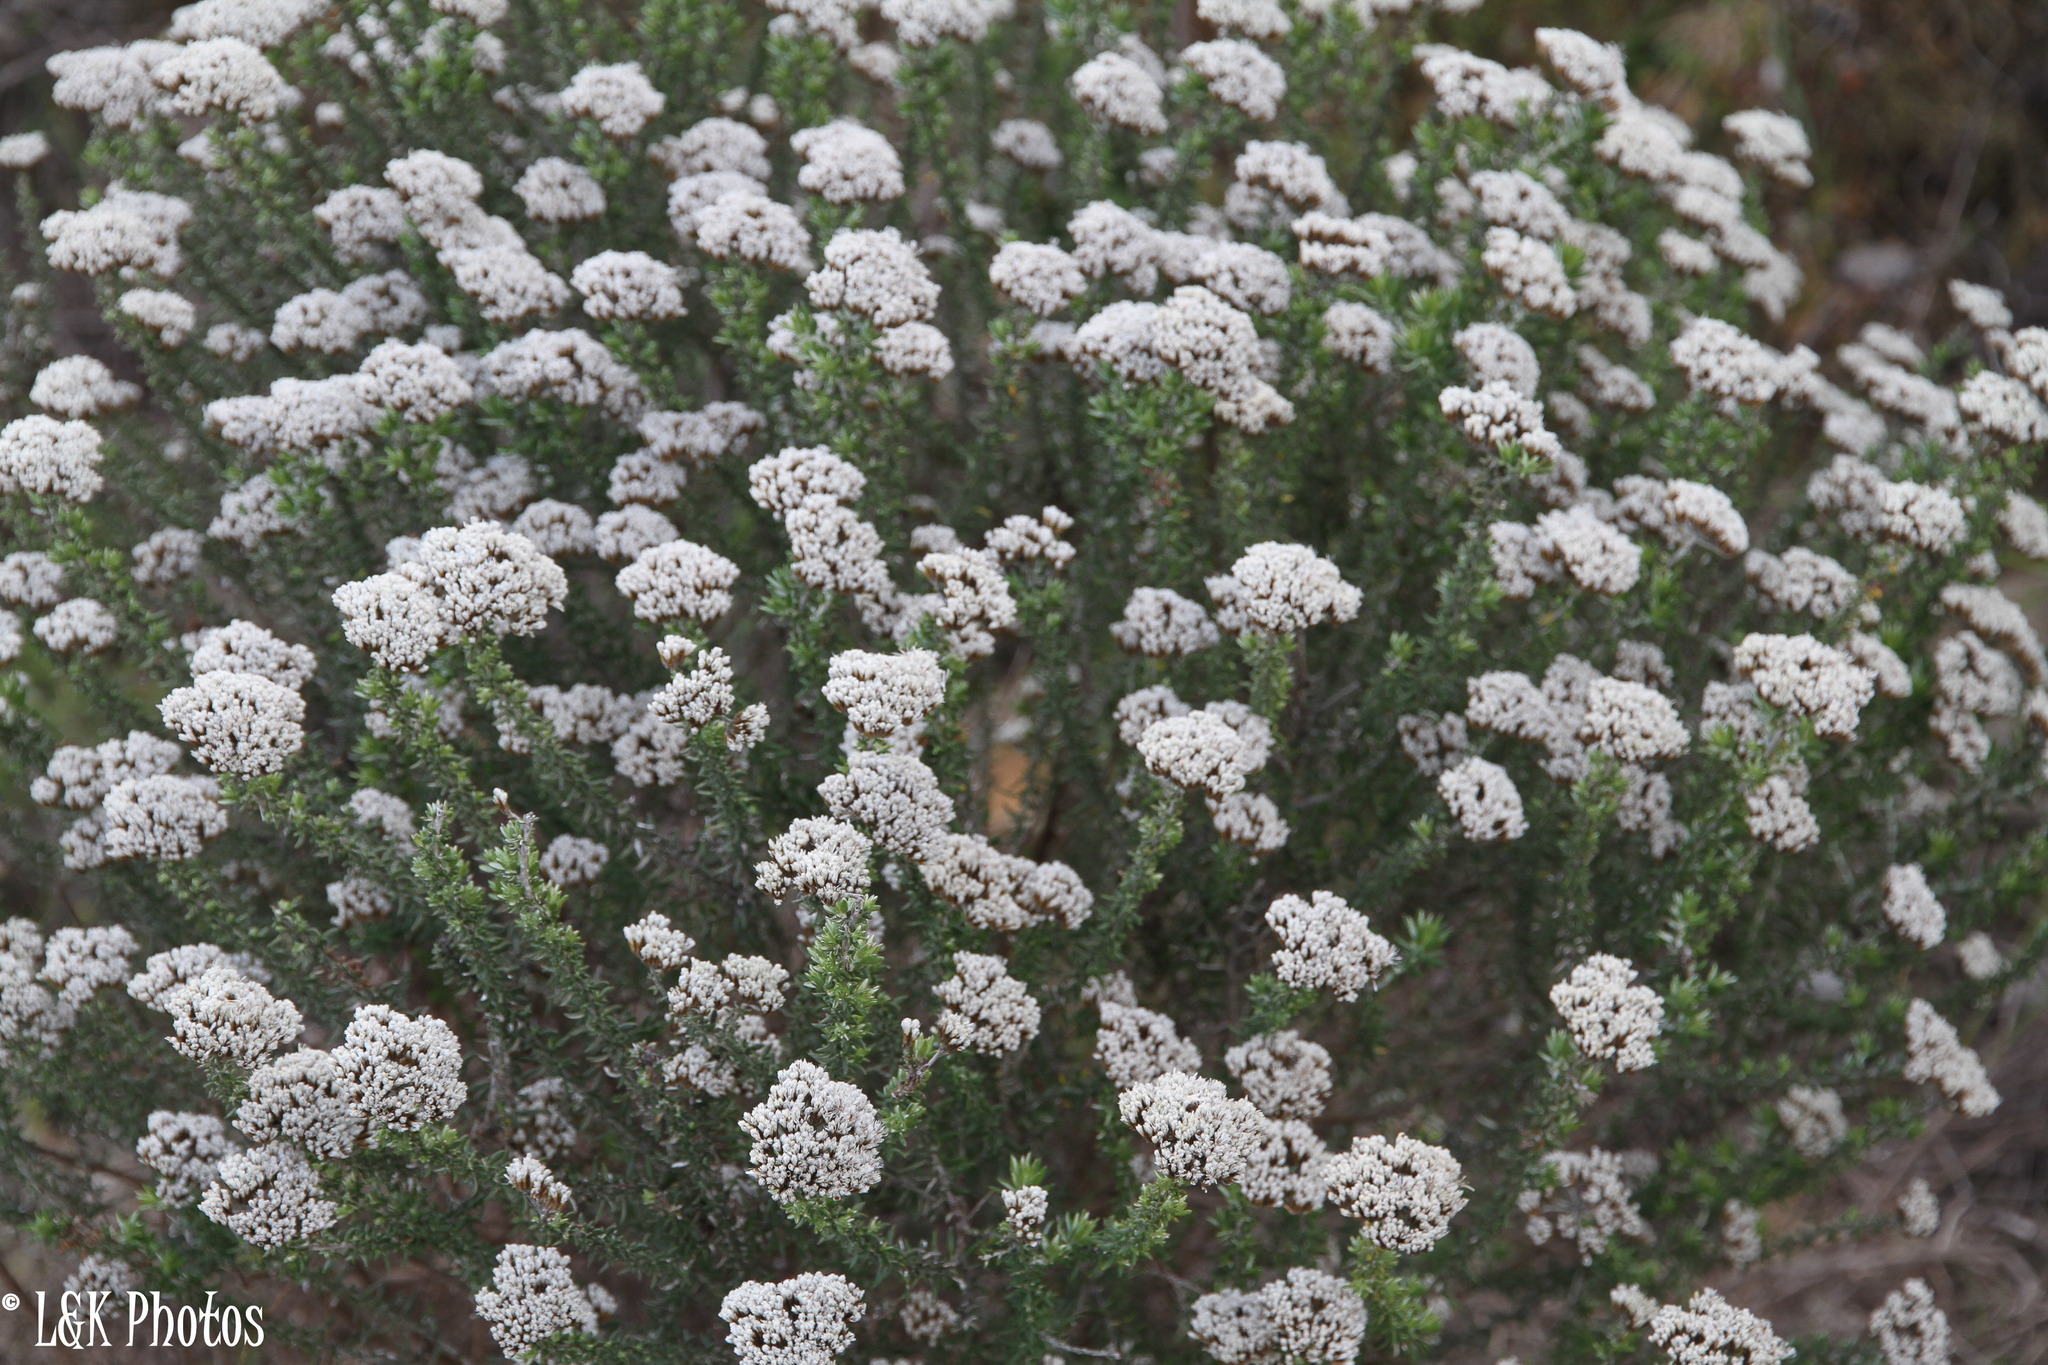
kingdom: Plantae
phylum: Tracheophyta
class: Magnoliopsida
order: Asterales
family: Asteraceae
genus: Metalasia
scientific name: Metalasia densa
